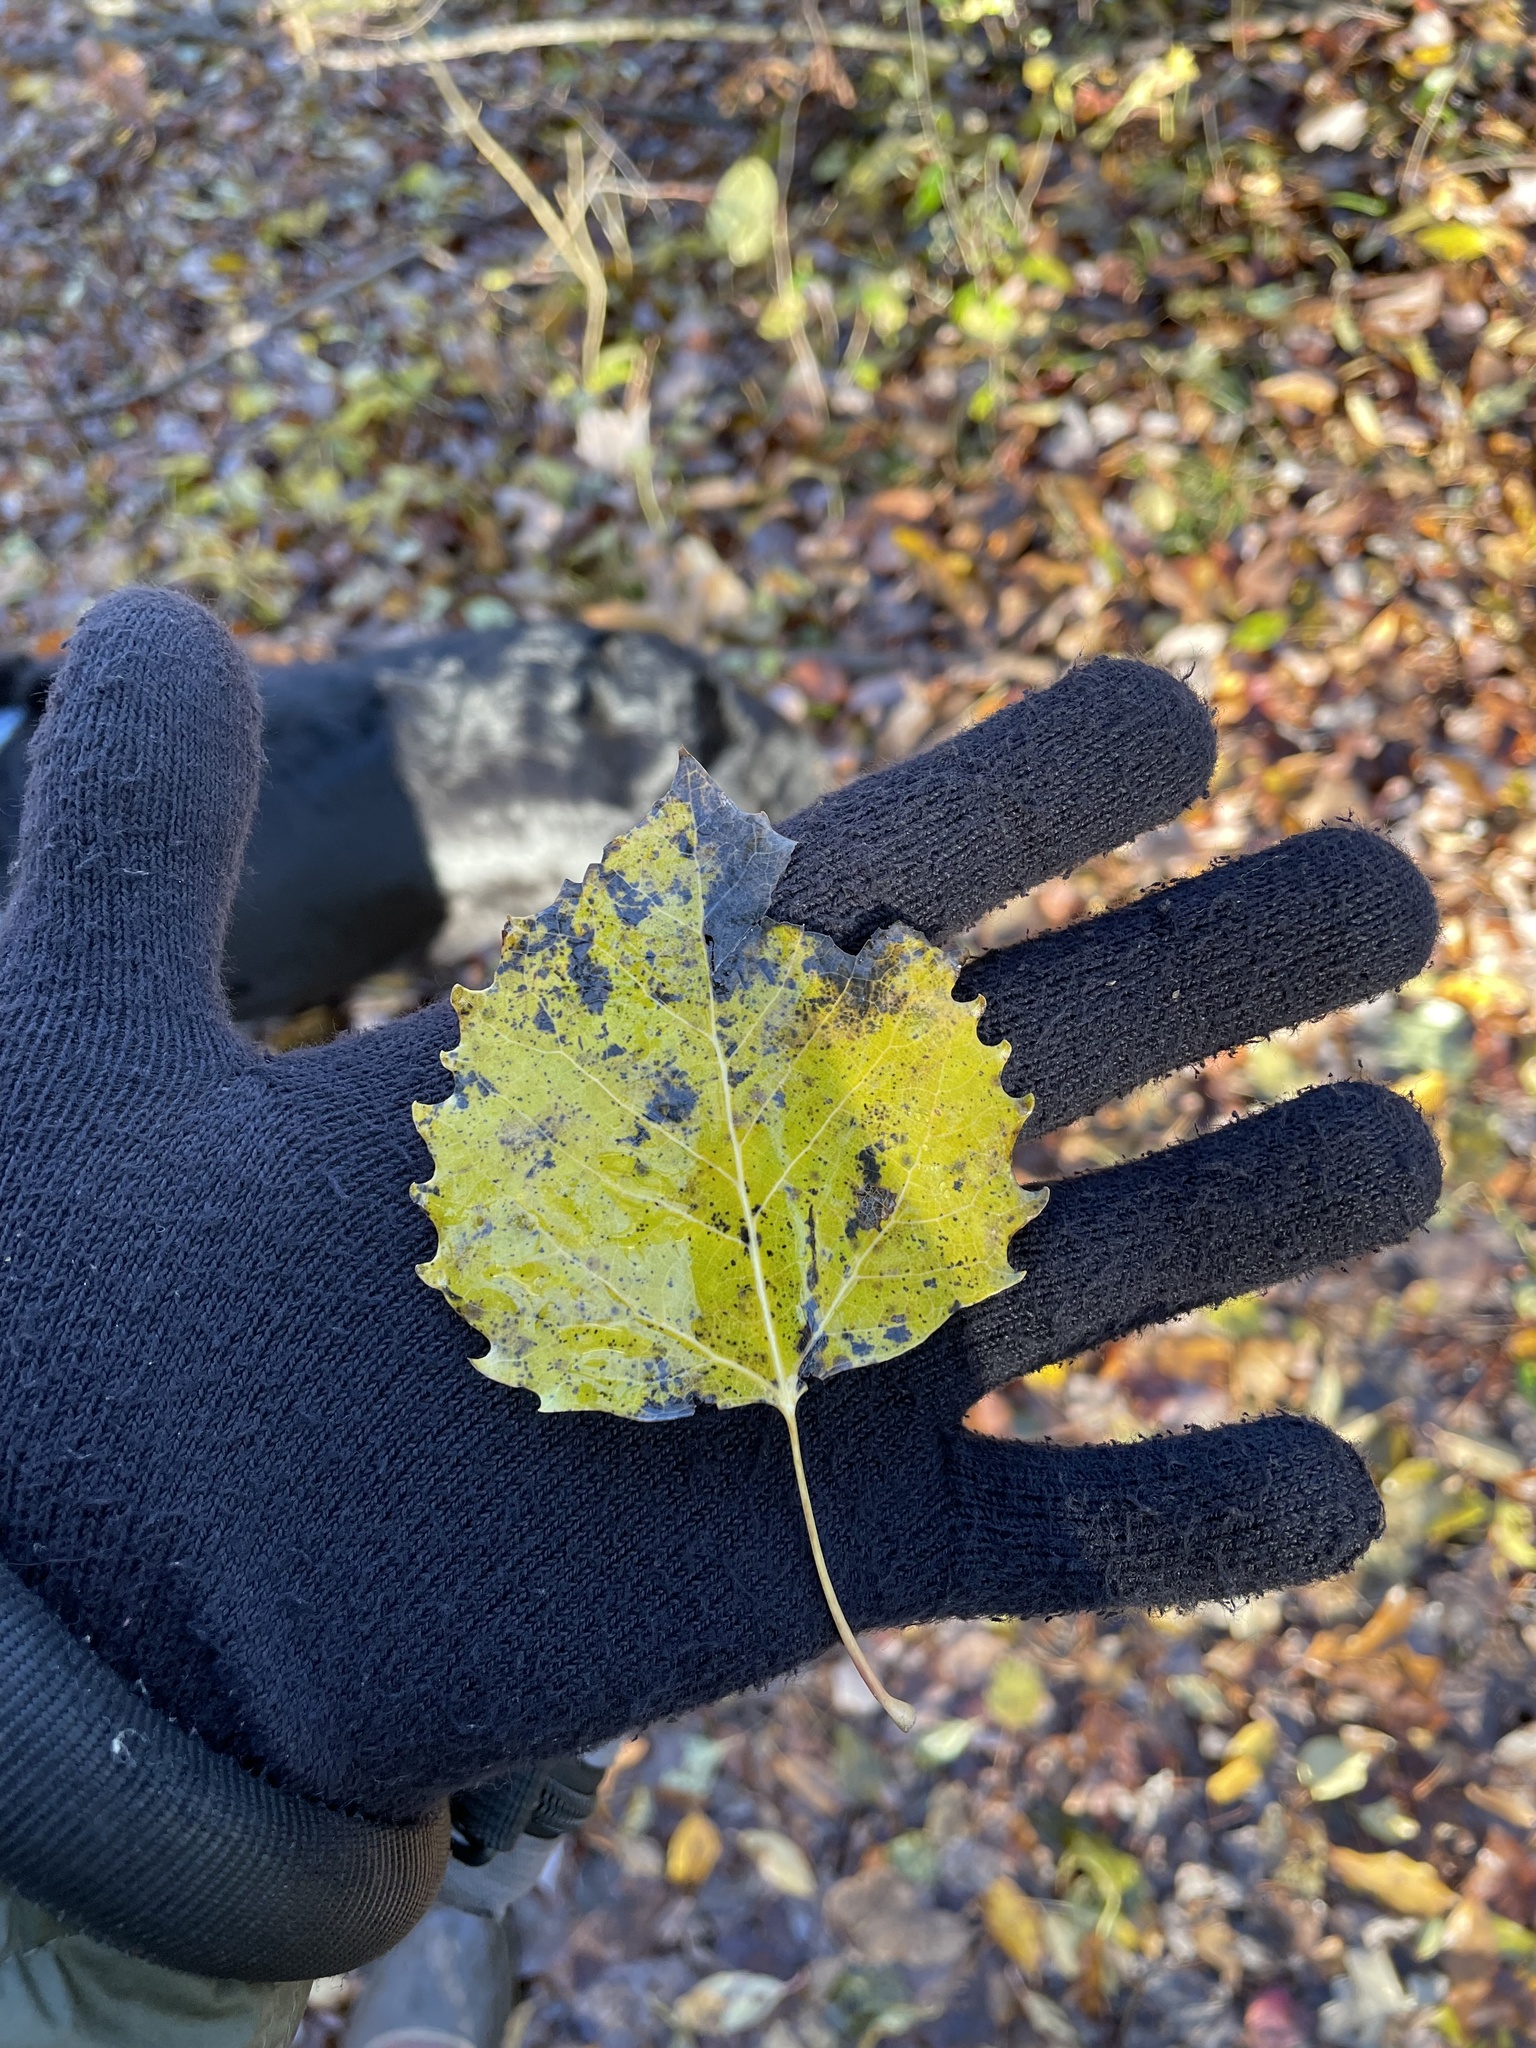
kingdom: Plantae
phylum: Tracheophyta
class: Magnoliopsida
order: Malpighiales
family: Salicaceae
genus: Populus
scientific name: Populus grandidentata
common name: Bigtooth aspen
